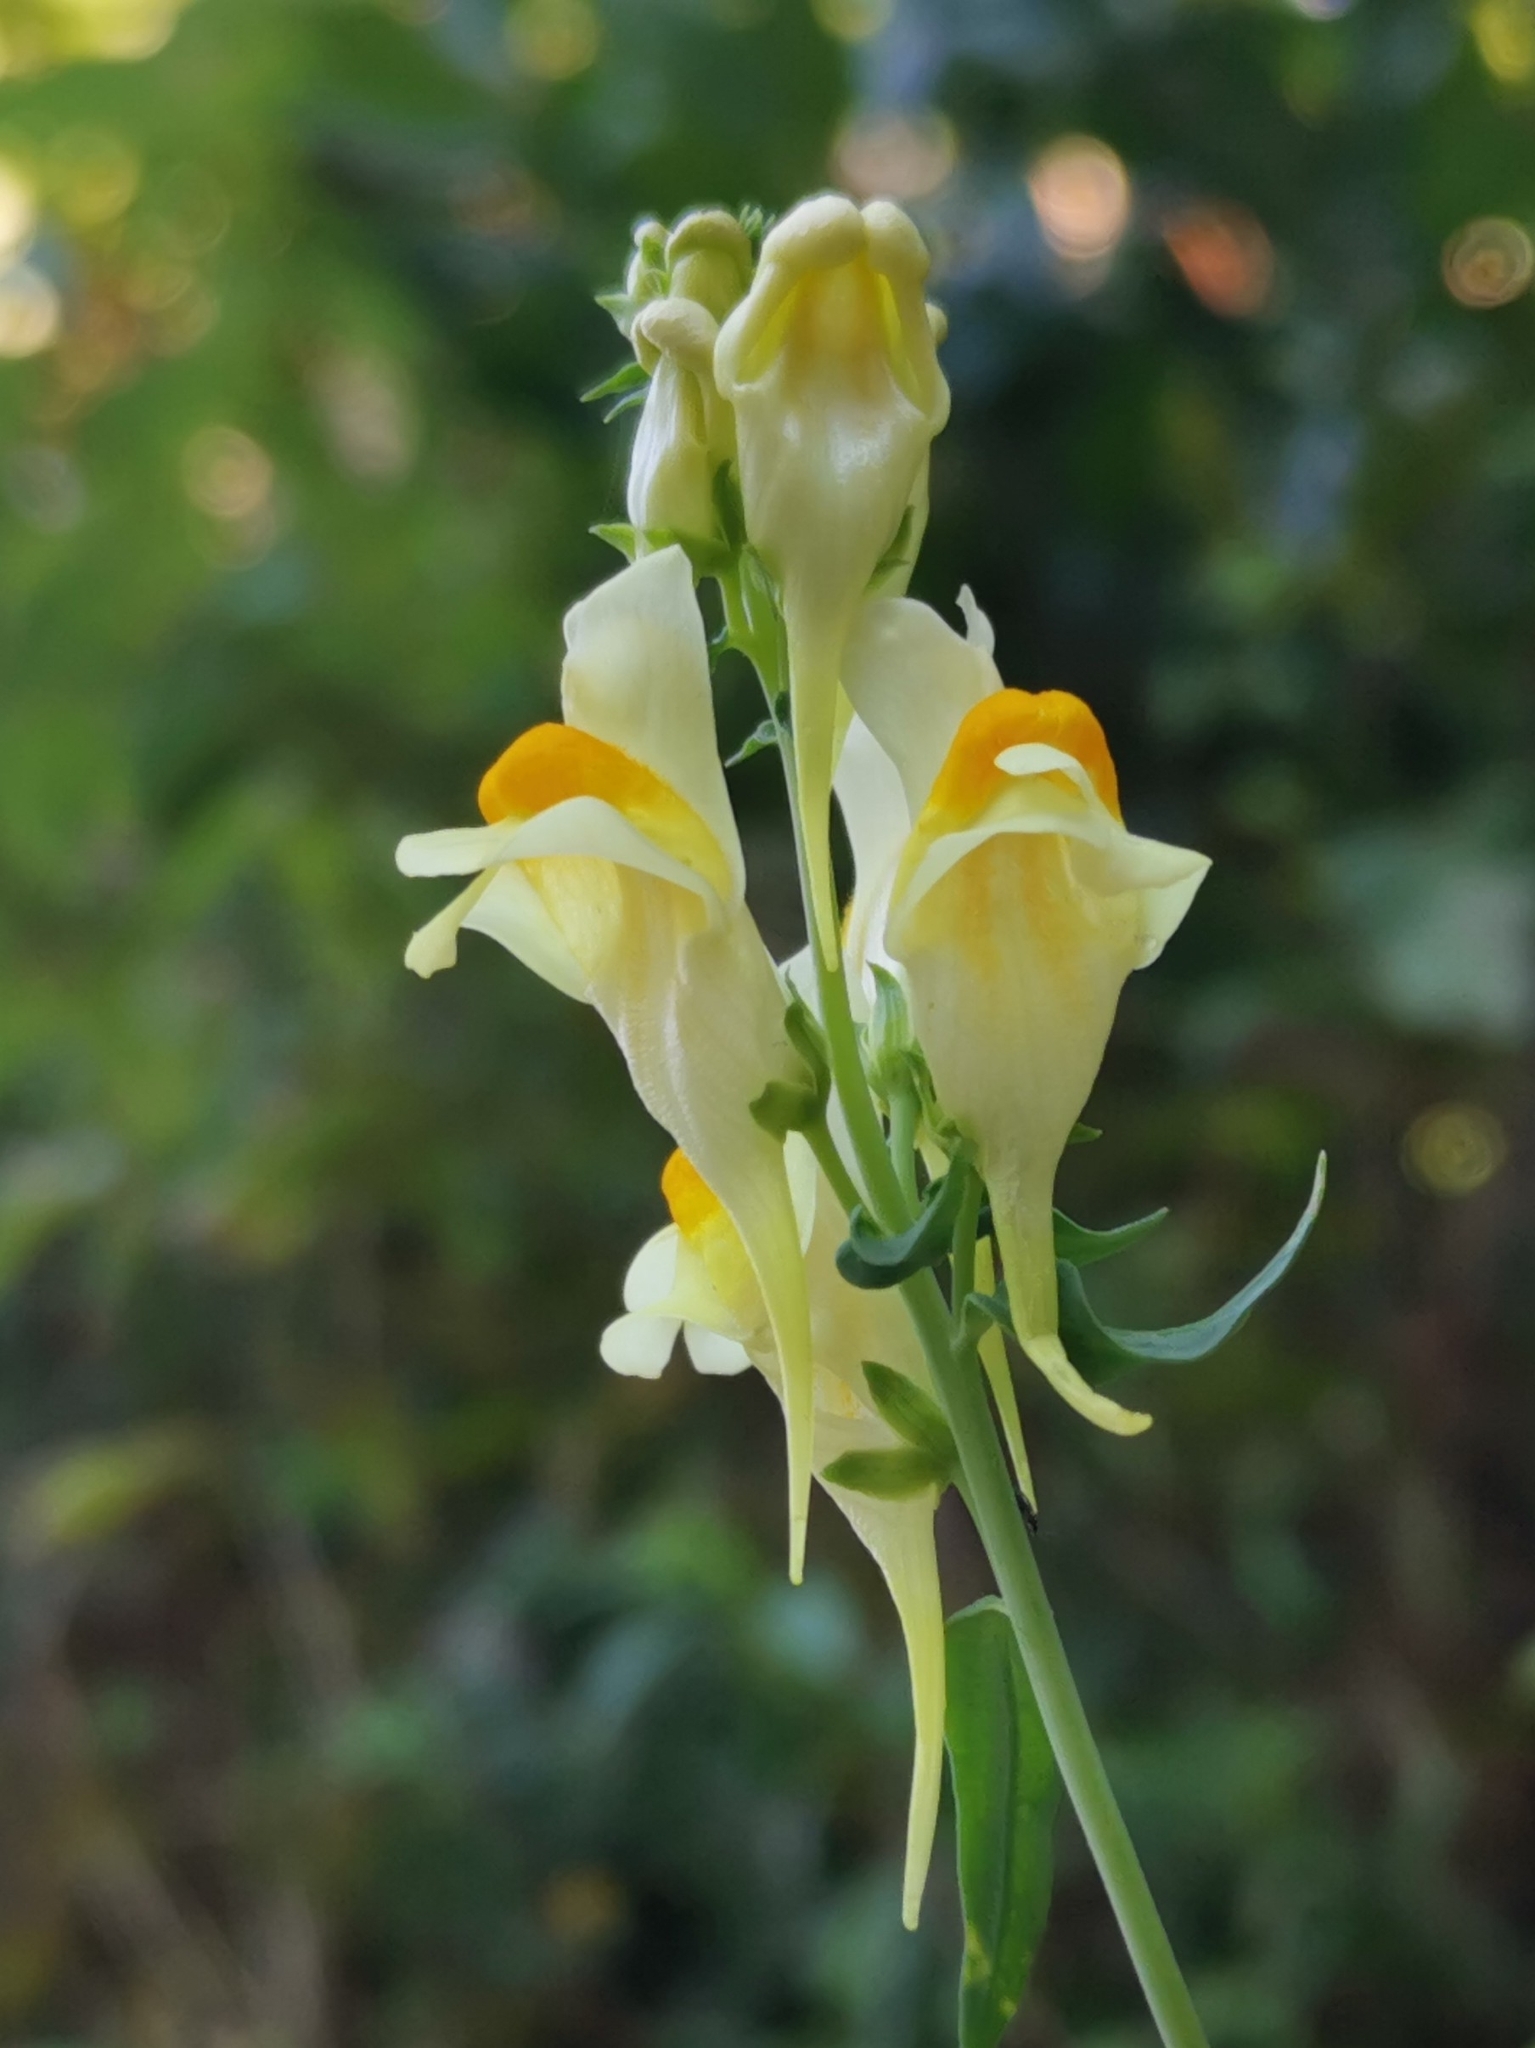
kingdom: Plantae
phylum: Tracheophyta
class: Magnoliopsida
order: Lamiales
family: Plantaginaceae
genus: Linaria
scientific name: Linaria vulgaris
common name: Butter and eggs
